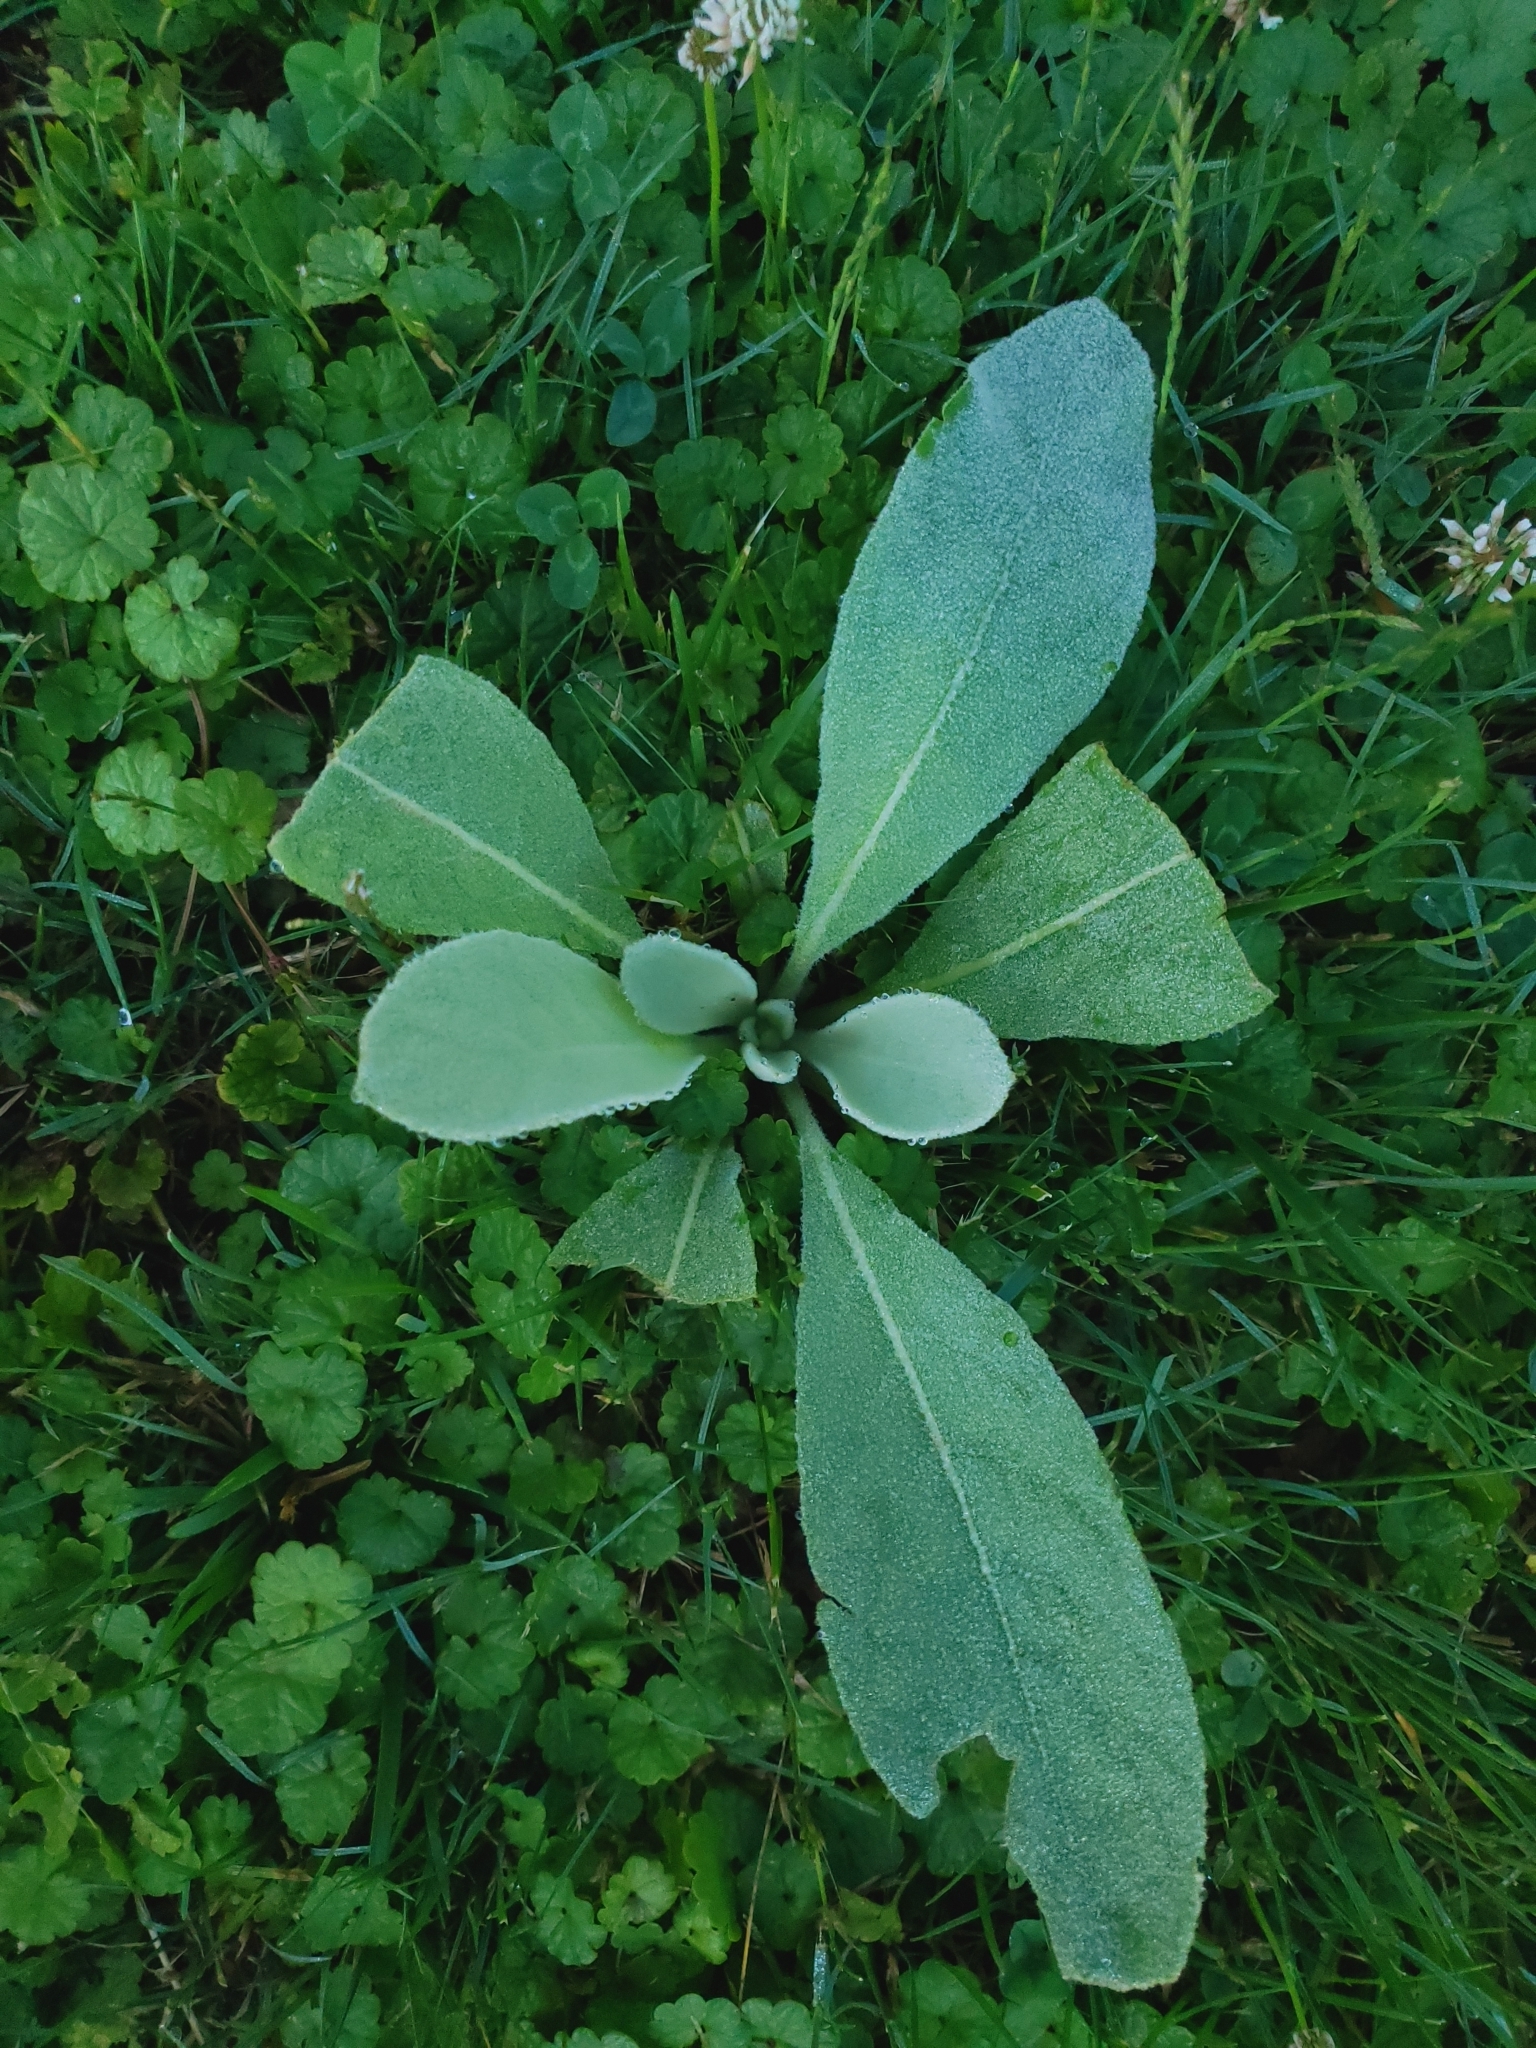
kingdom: Plantae
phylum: Tracheophyta
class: Magnoliopsida
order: Lamiales
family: Scrophulariaceae
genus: Verbascum
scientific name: Verbascum thapsus
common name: Common mullein
